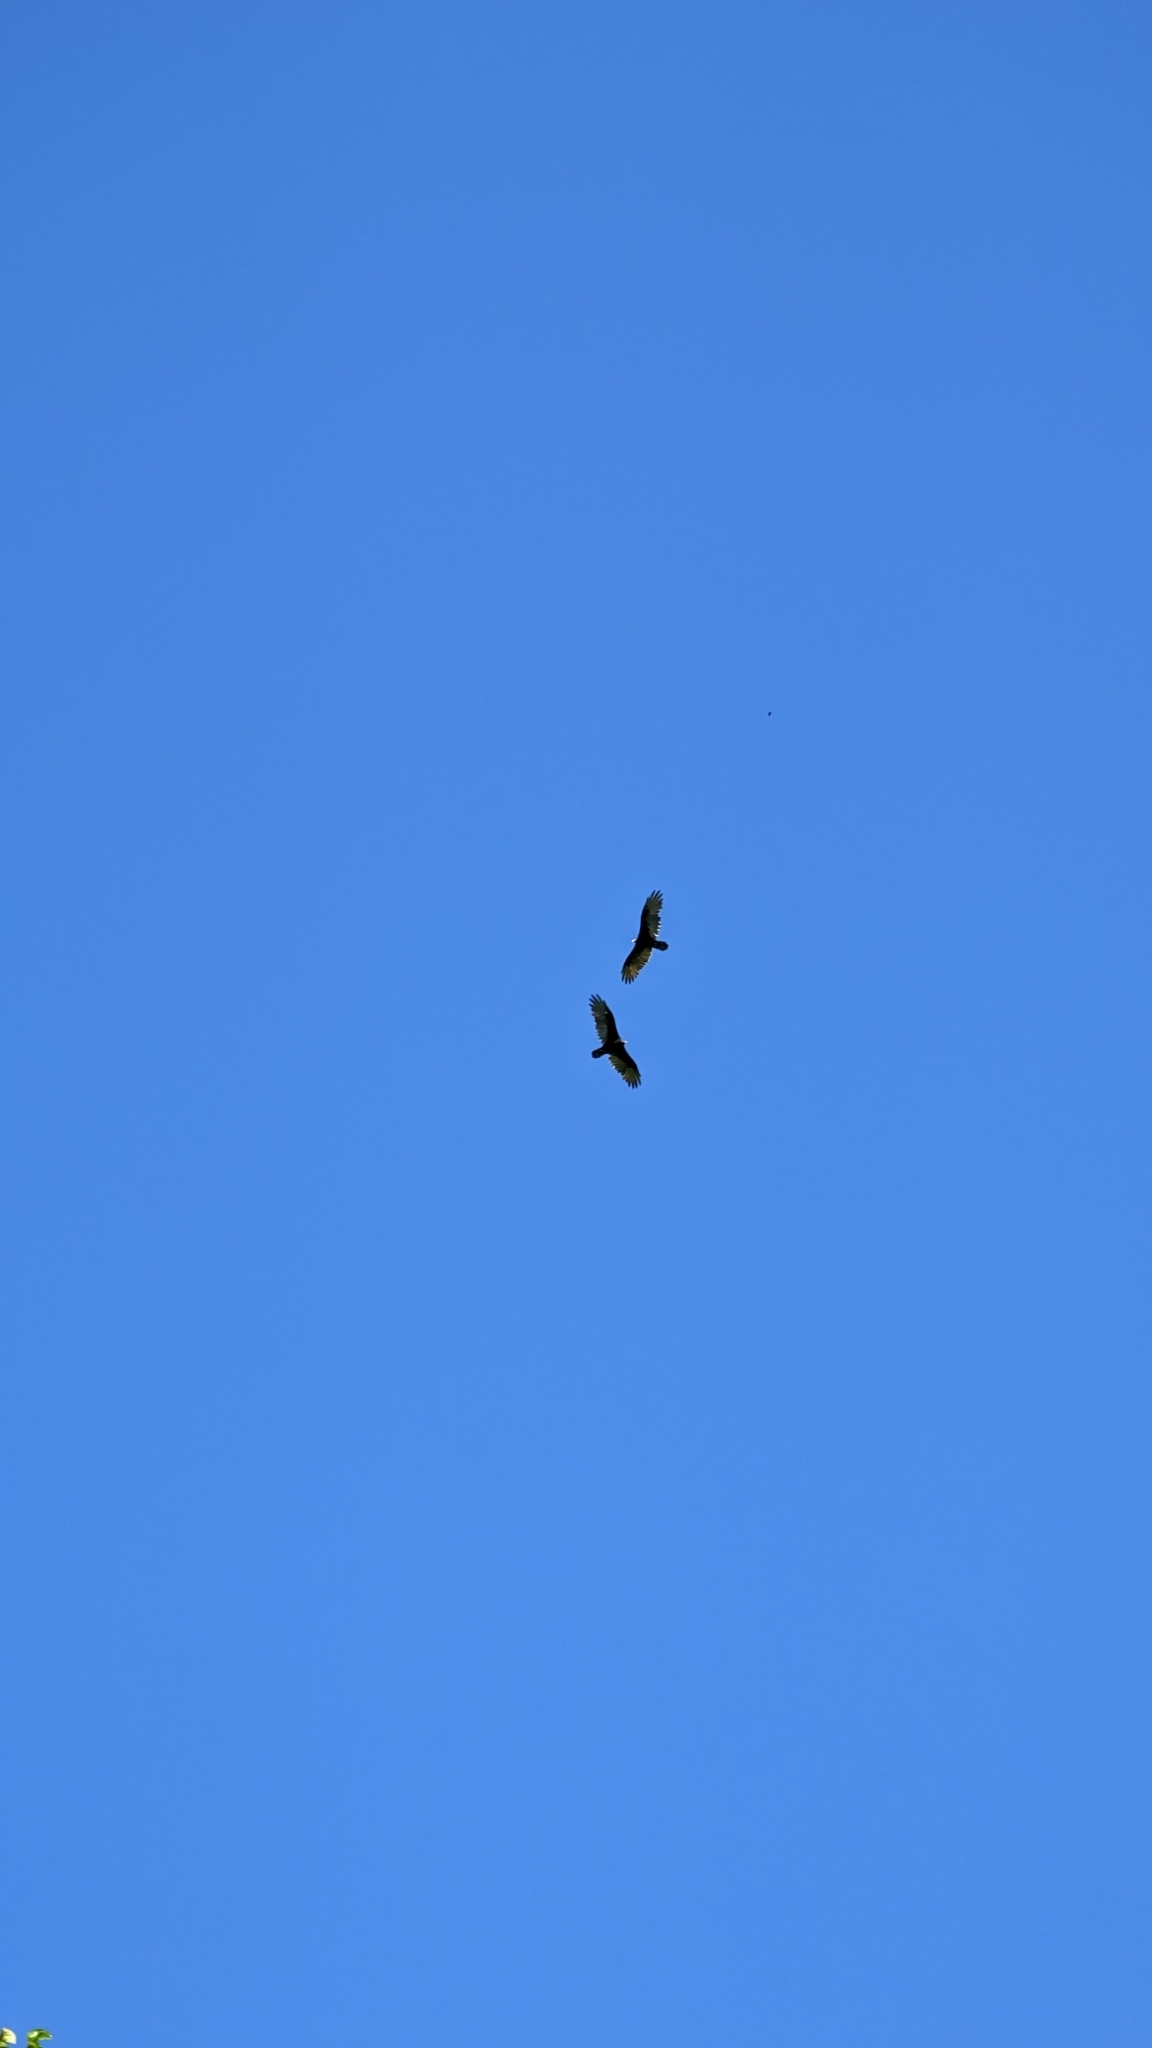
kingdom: Animalia
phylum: Chordata
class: Aves
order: Accipitriformes
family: Cathartidae
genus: Cathartes
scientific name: Cathartes aura
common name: Turkey vulture
